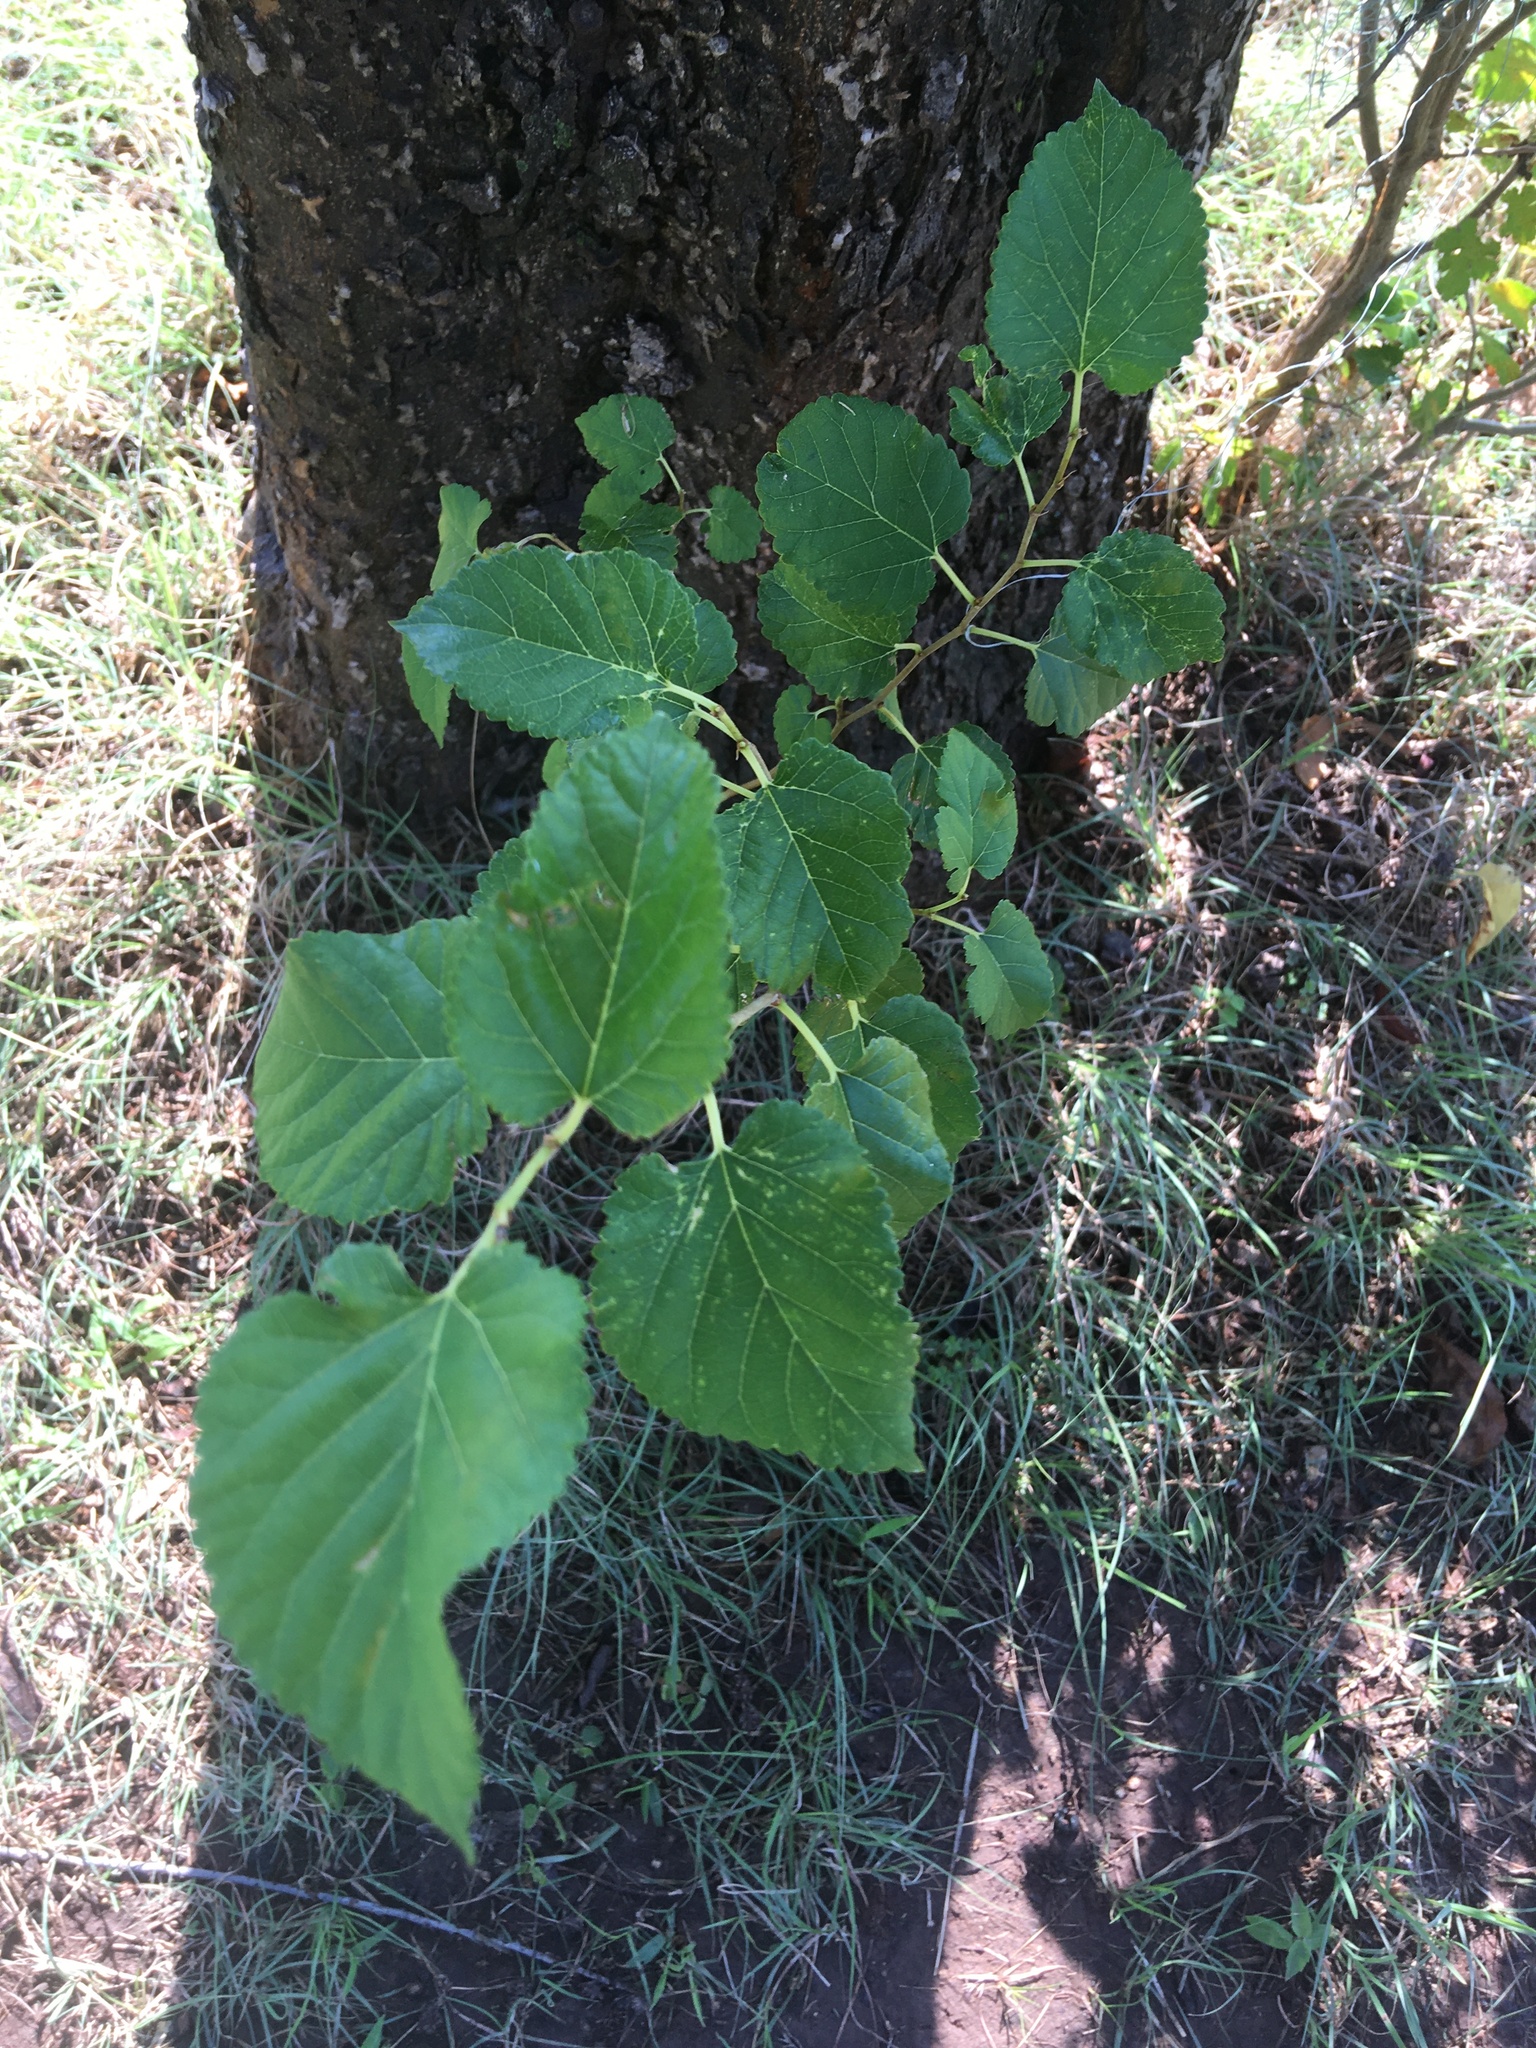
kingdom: Plantae
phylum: Tracheophyta
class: Magnoliopsida
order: Rosales
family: Moraceae
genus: Morus
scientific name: Morus alba
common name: White mulberry
